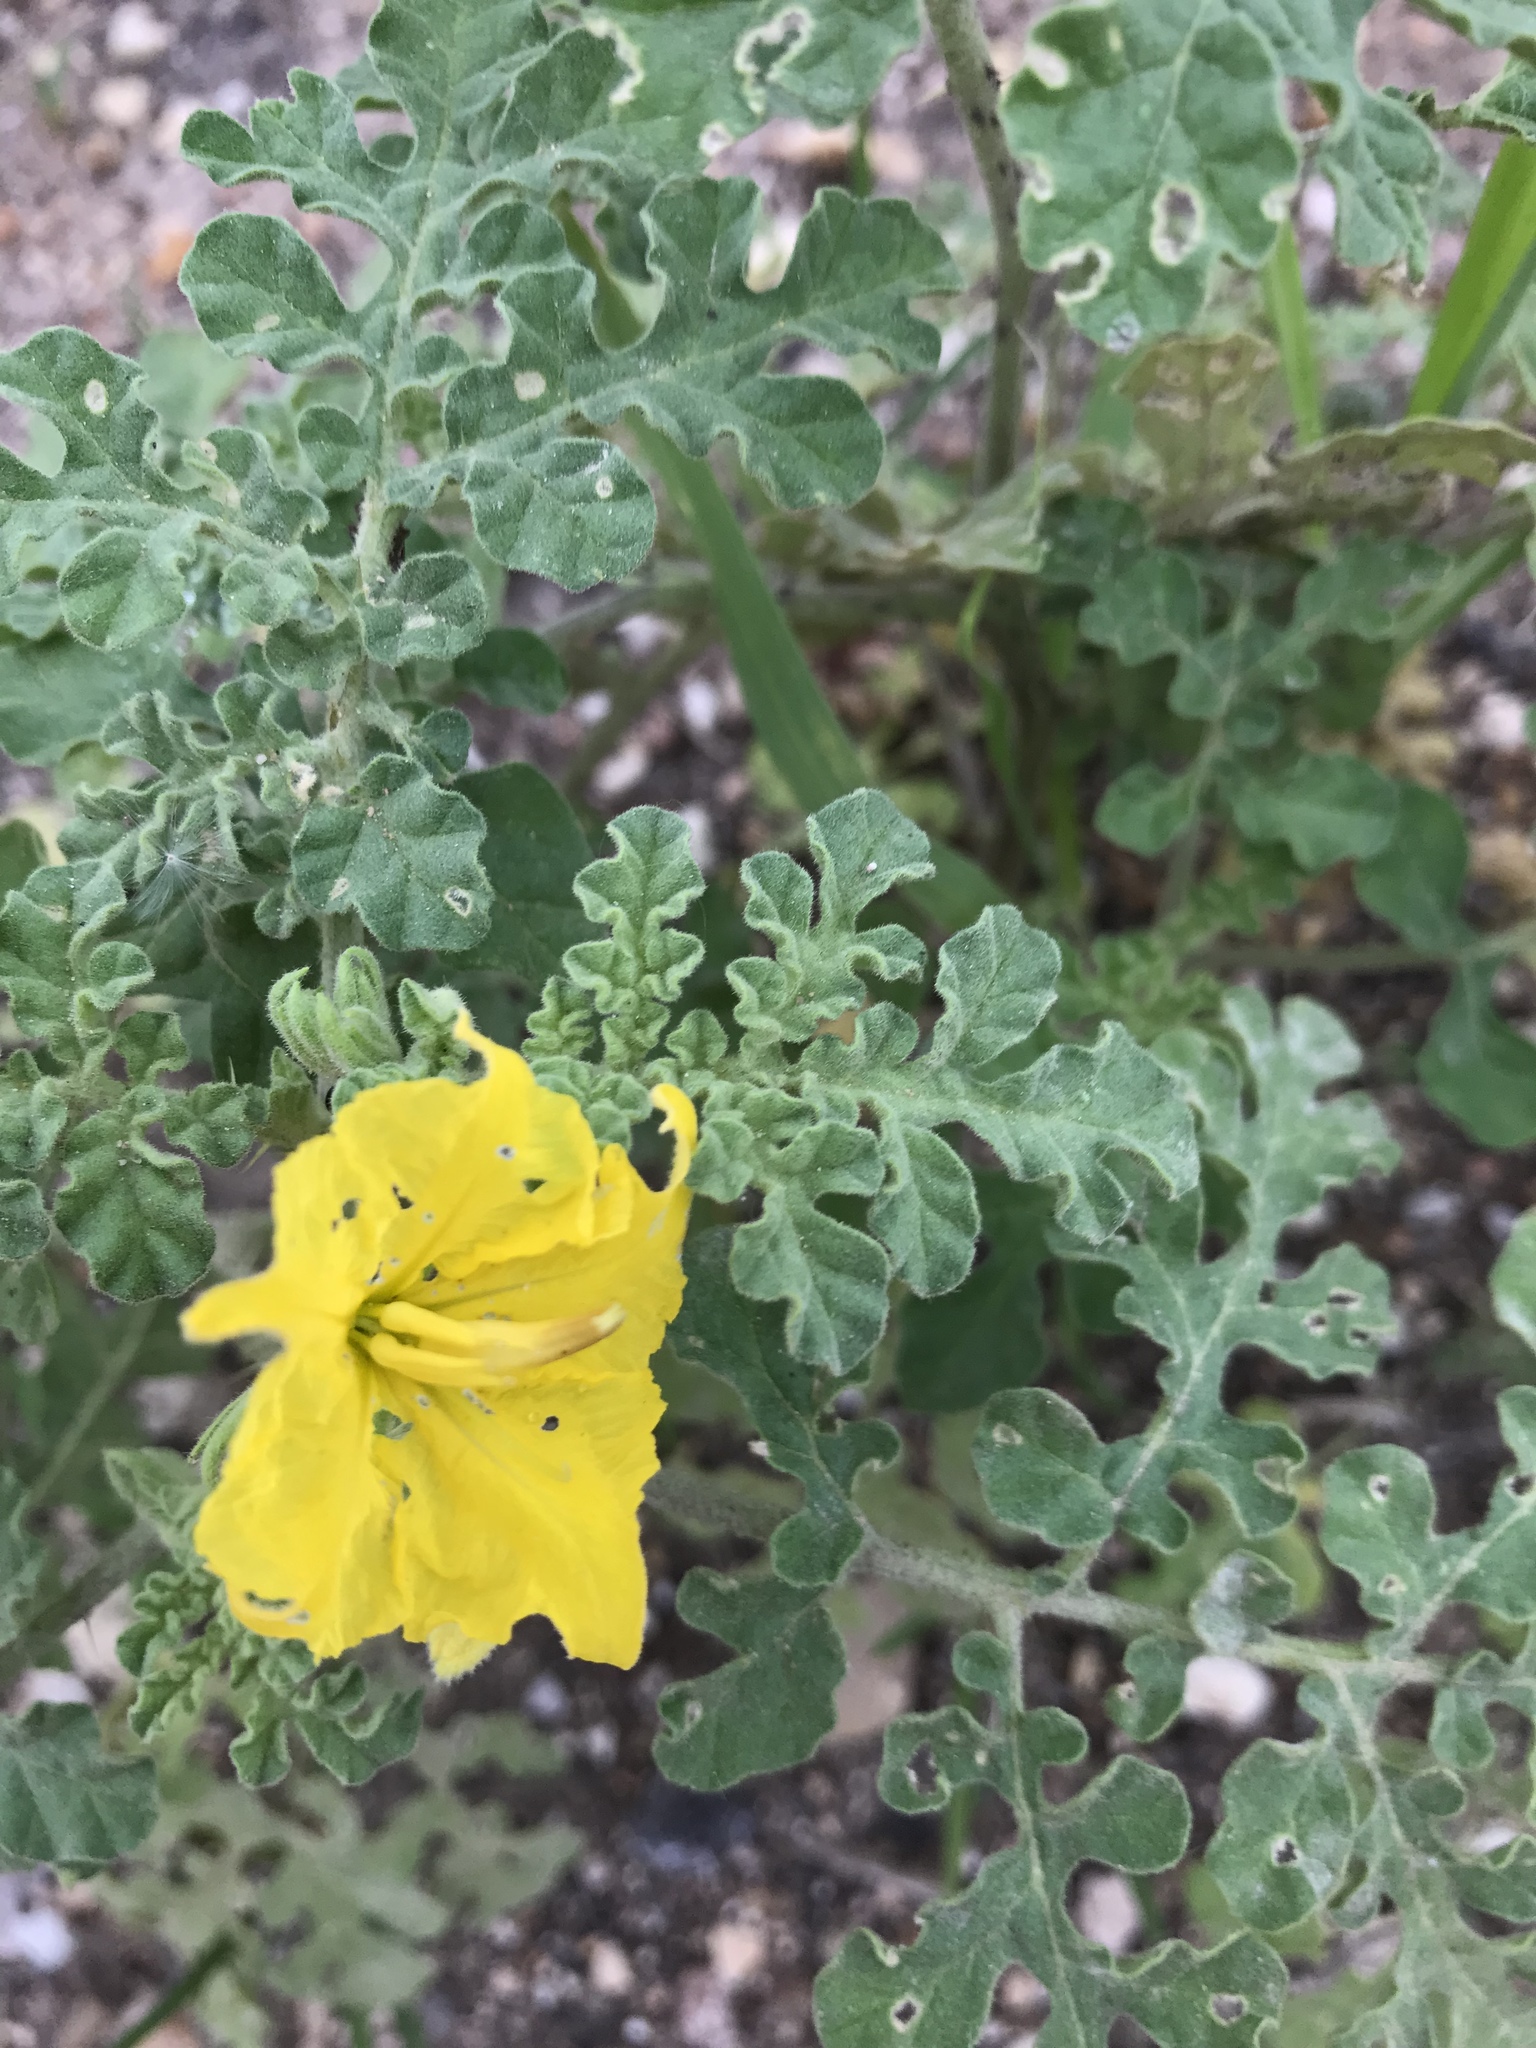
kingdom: Plantae
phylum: Tracheophyta
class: Magnoliopsida
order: Solanales
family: Solanaceae
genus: Solanum
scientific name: Solanum angustifolium
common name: Buffalobur nightshade
